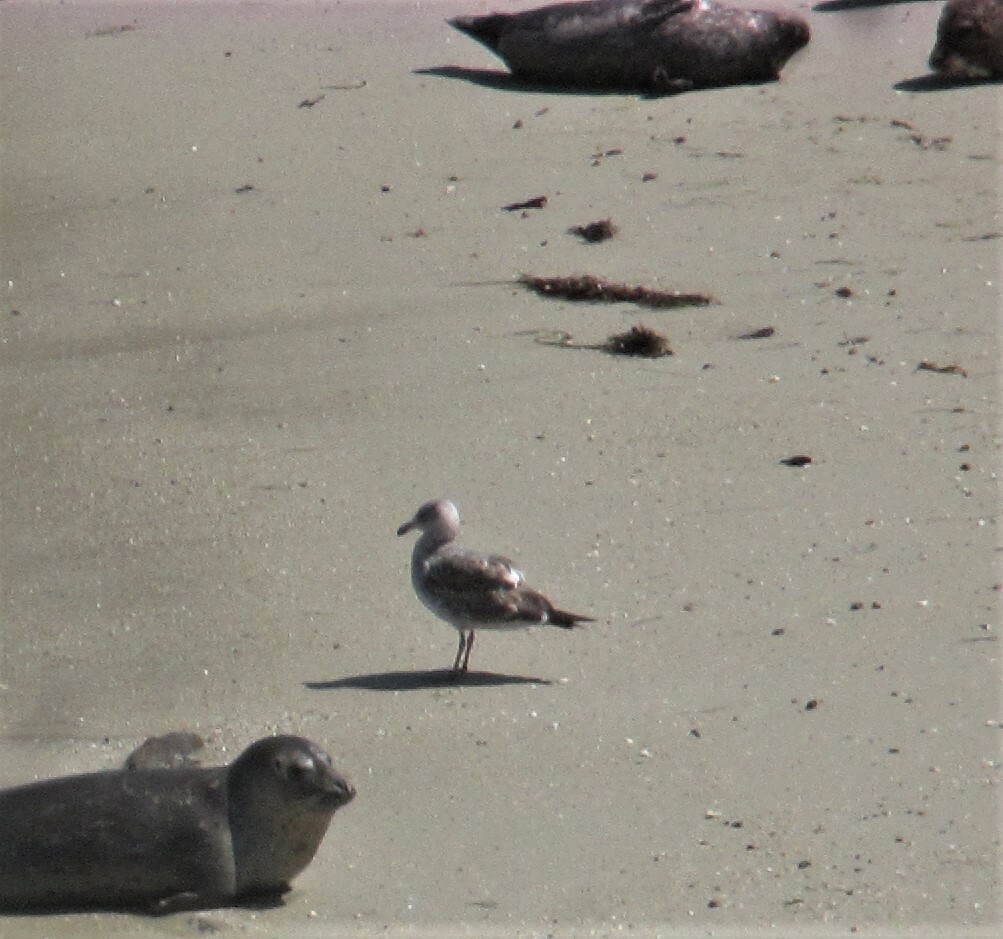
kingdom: Animalia
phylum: Chordata
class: Aves
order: Charadriiformes
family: Laridae
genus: Larus
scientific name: Larus occidentalis
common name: Western gull
